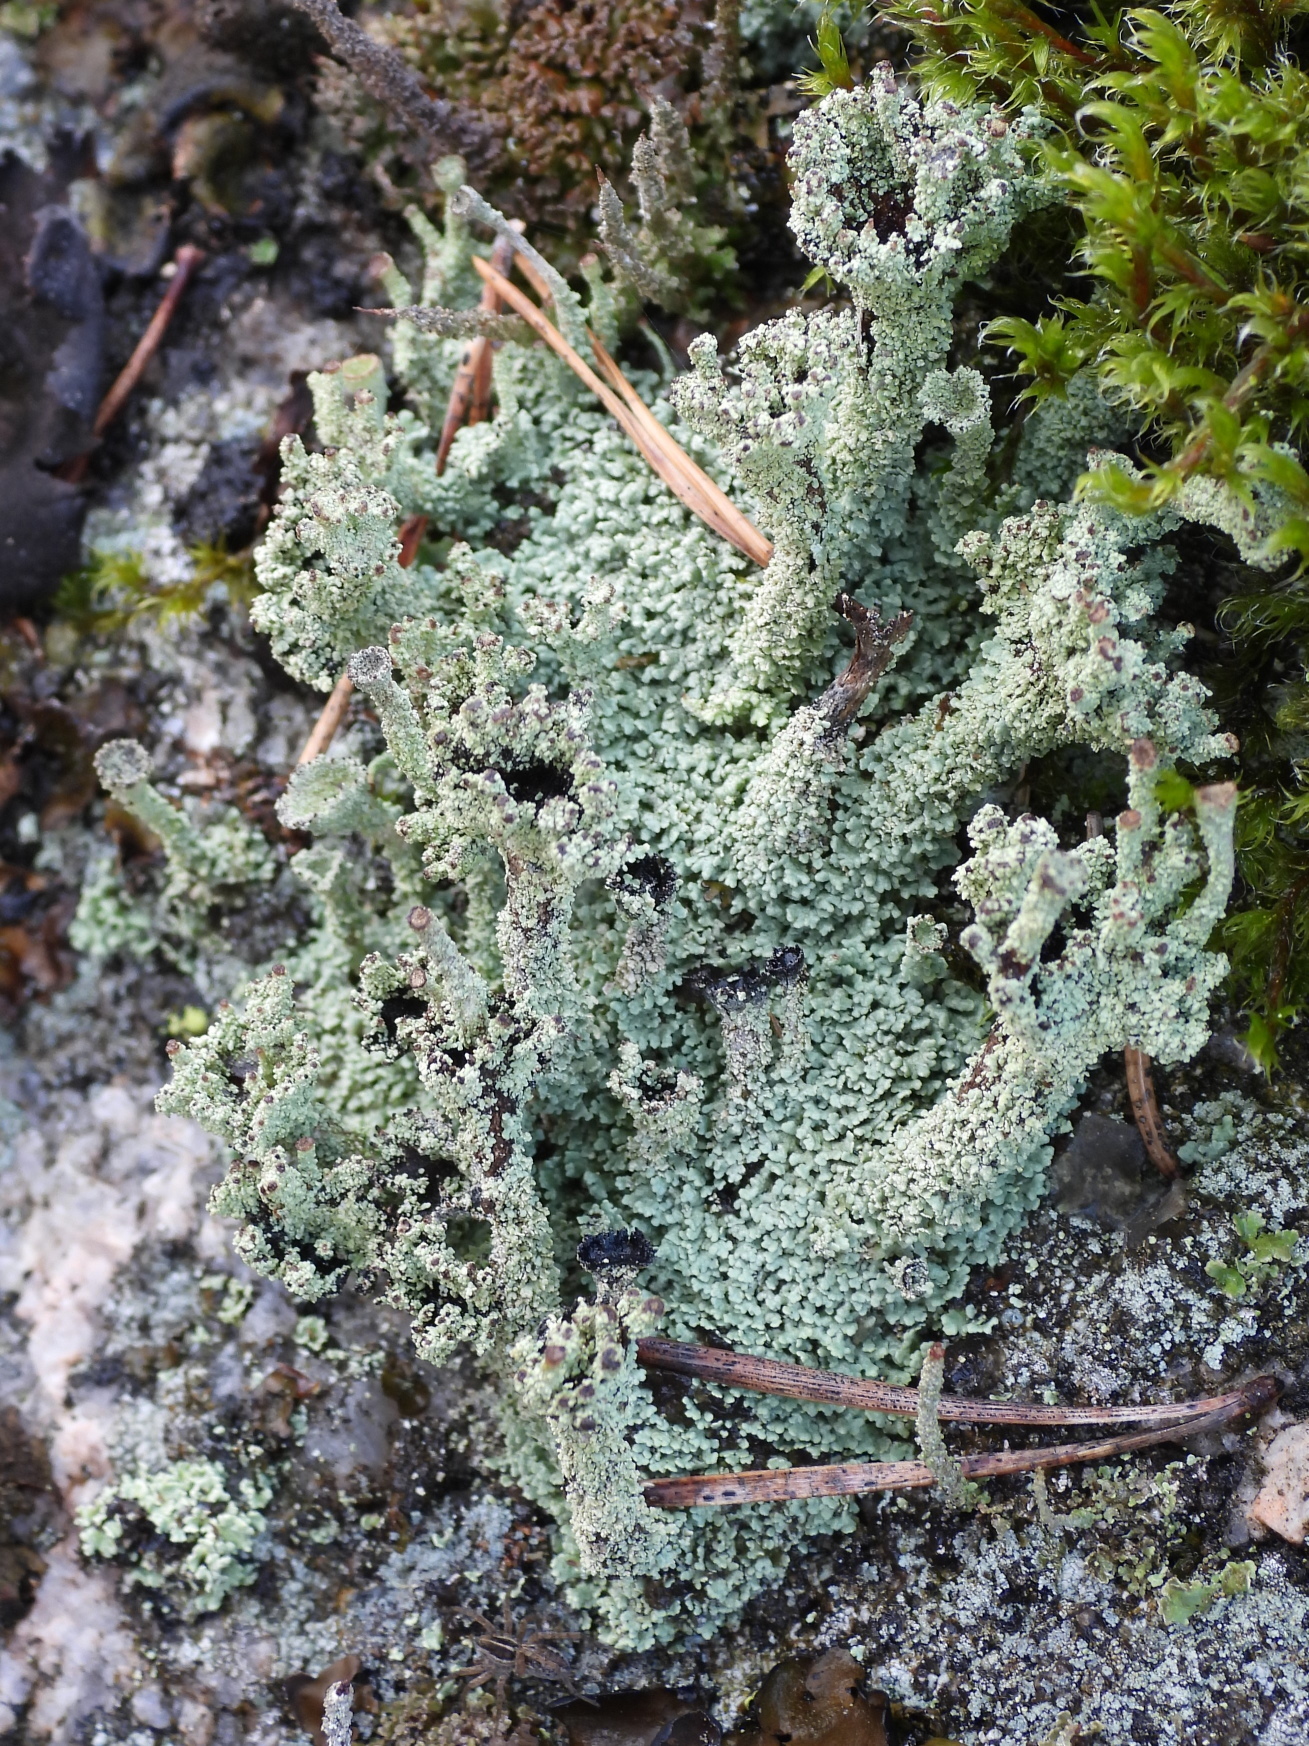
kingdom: Fungi
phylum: Ascomycota
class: Lecanoromycetes
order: Lecanorales
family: Cladoniaceae
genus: Cladonia
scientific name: Cladonia squamosa
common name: Dragon horn
